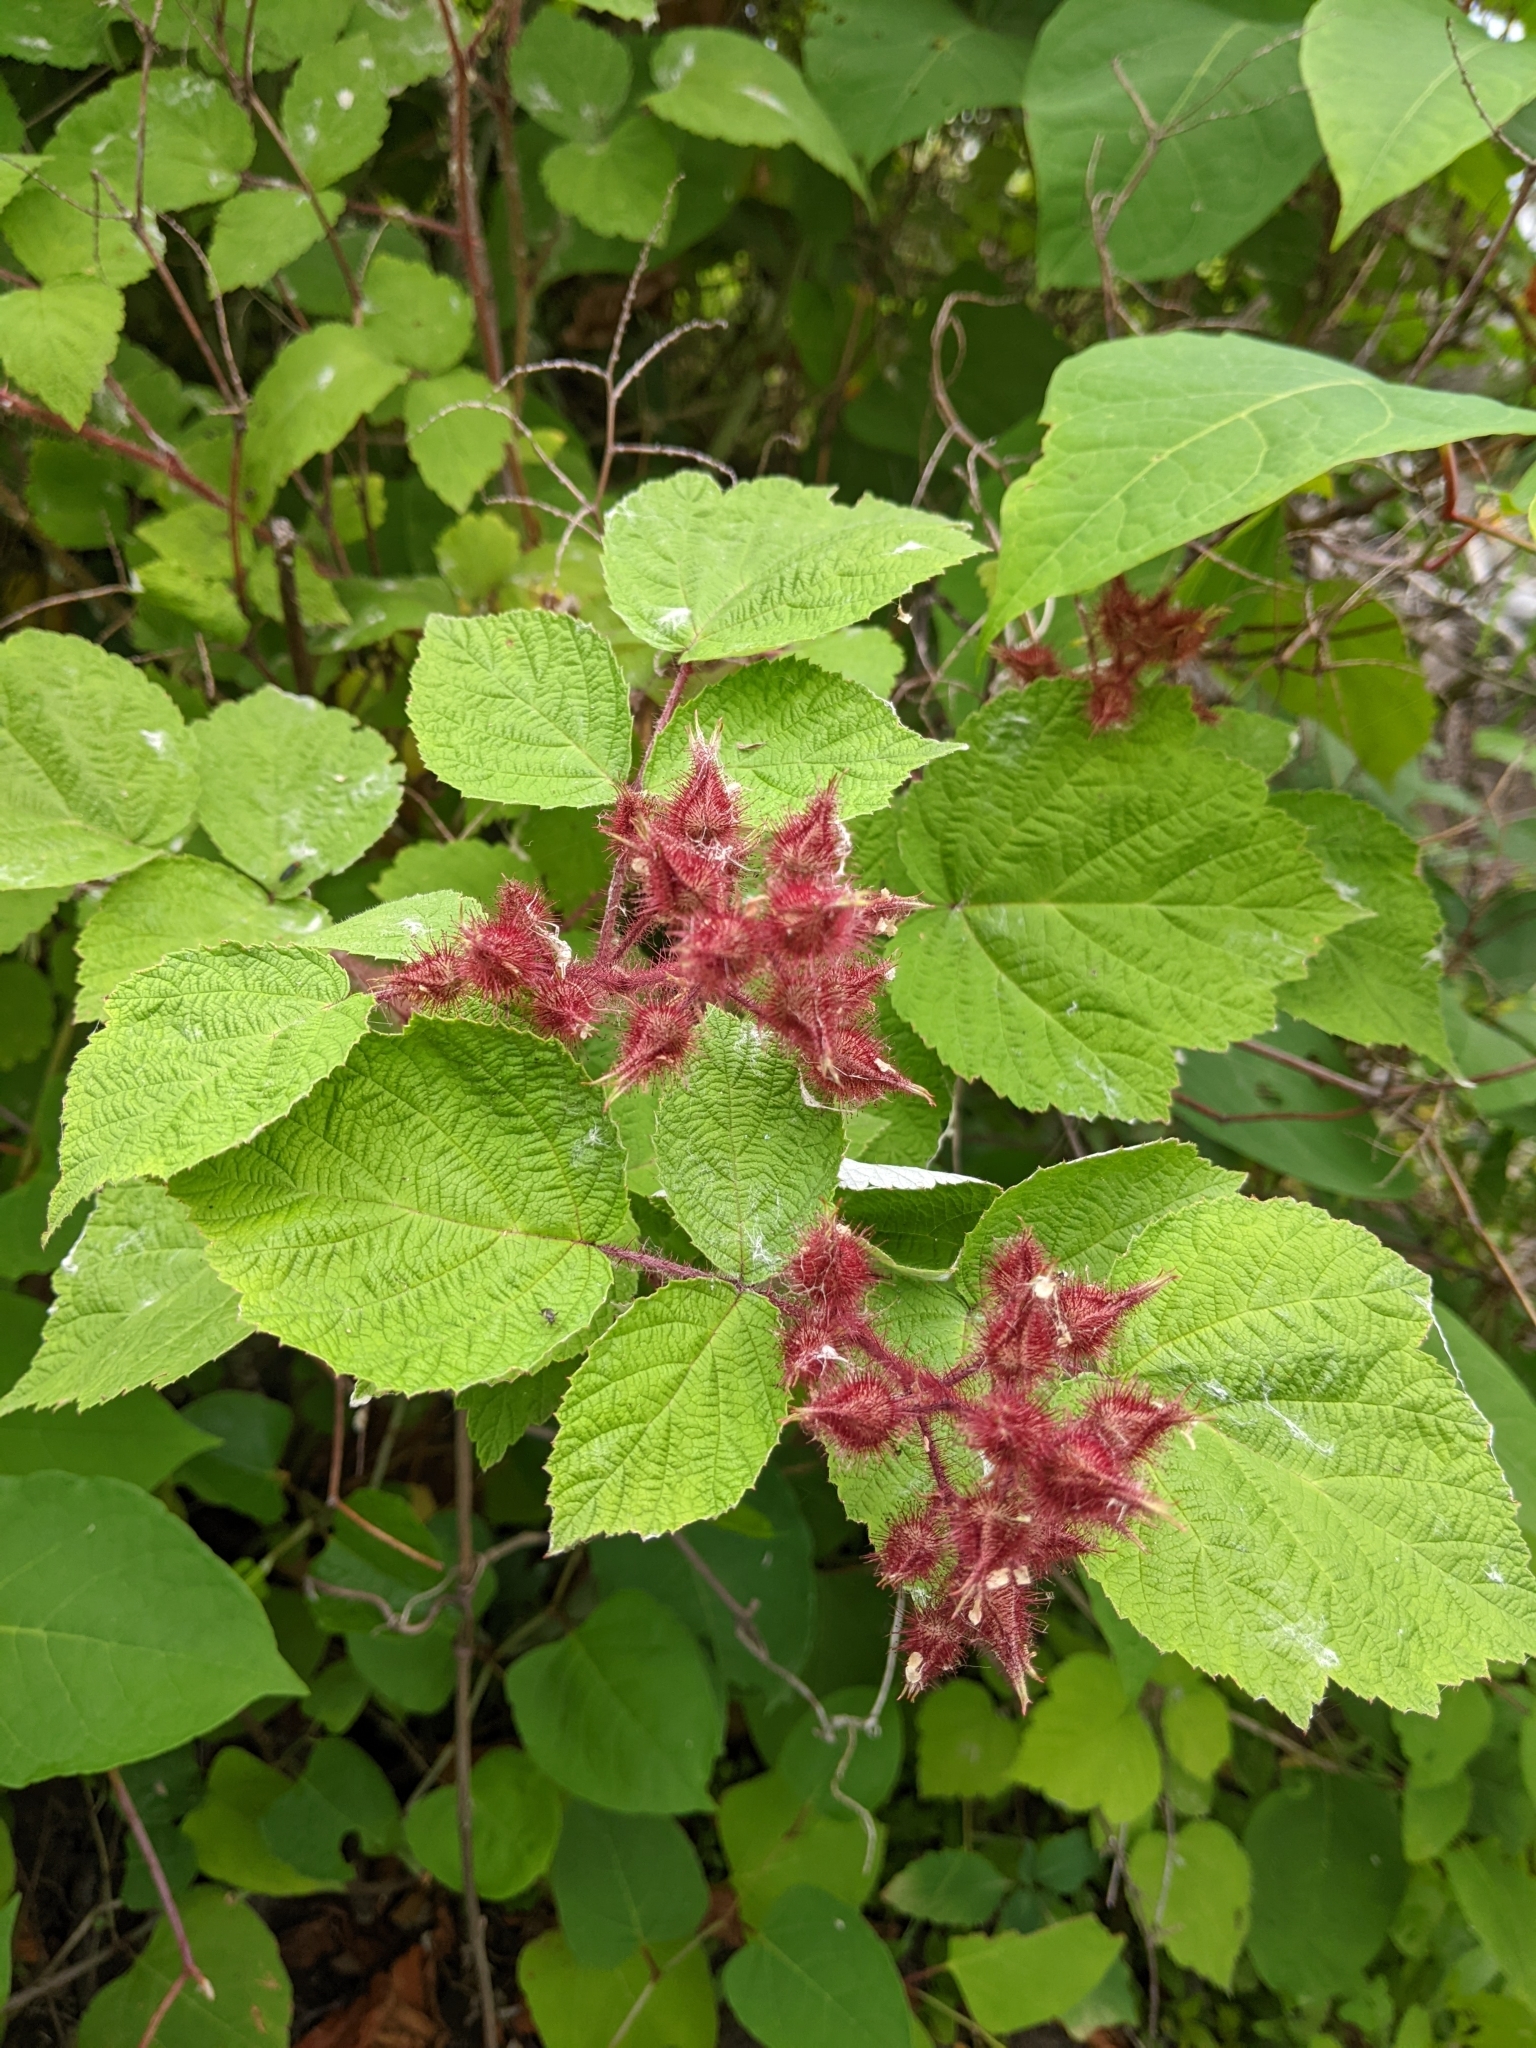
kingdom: Plantae
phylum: Tracheophyta
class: Magnoliopsida
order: Rosales
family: Rosaceae
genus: Rubus
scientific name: Rubus phoenicolasius
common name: Japanese wineberry
